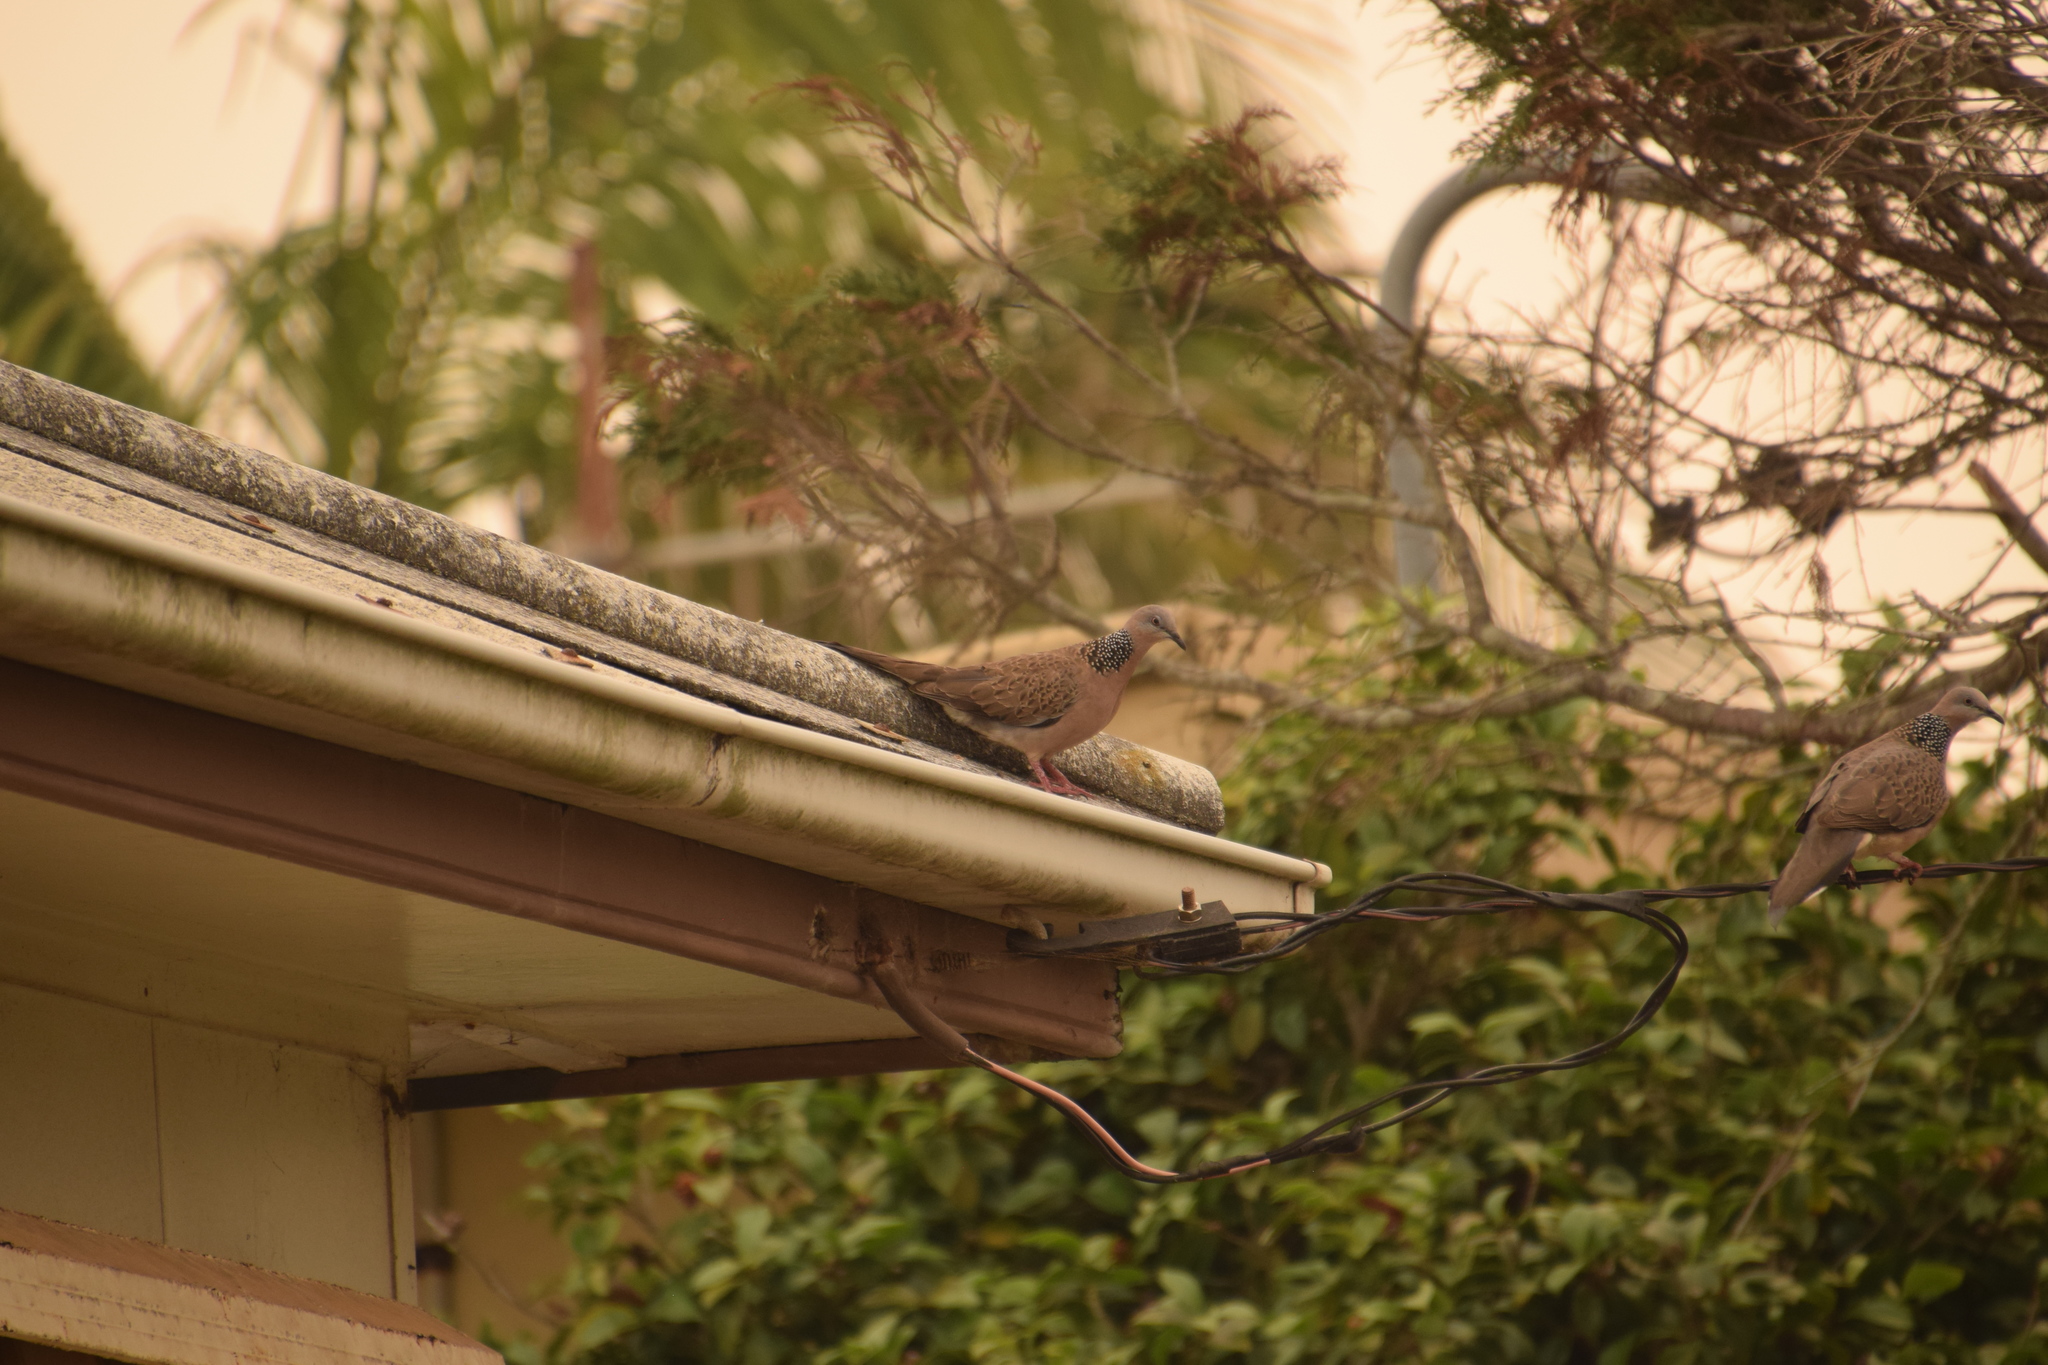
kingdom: Animalia
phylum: Chordata
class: Aves
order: Columbiformes
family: Columbidae
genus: Spilopelia
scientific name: Spilopelia chinensis
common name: Spotted dove
